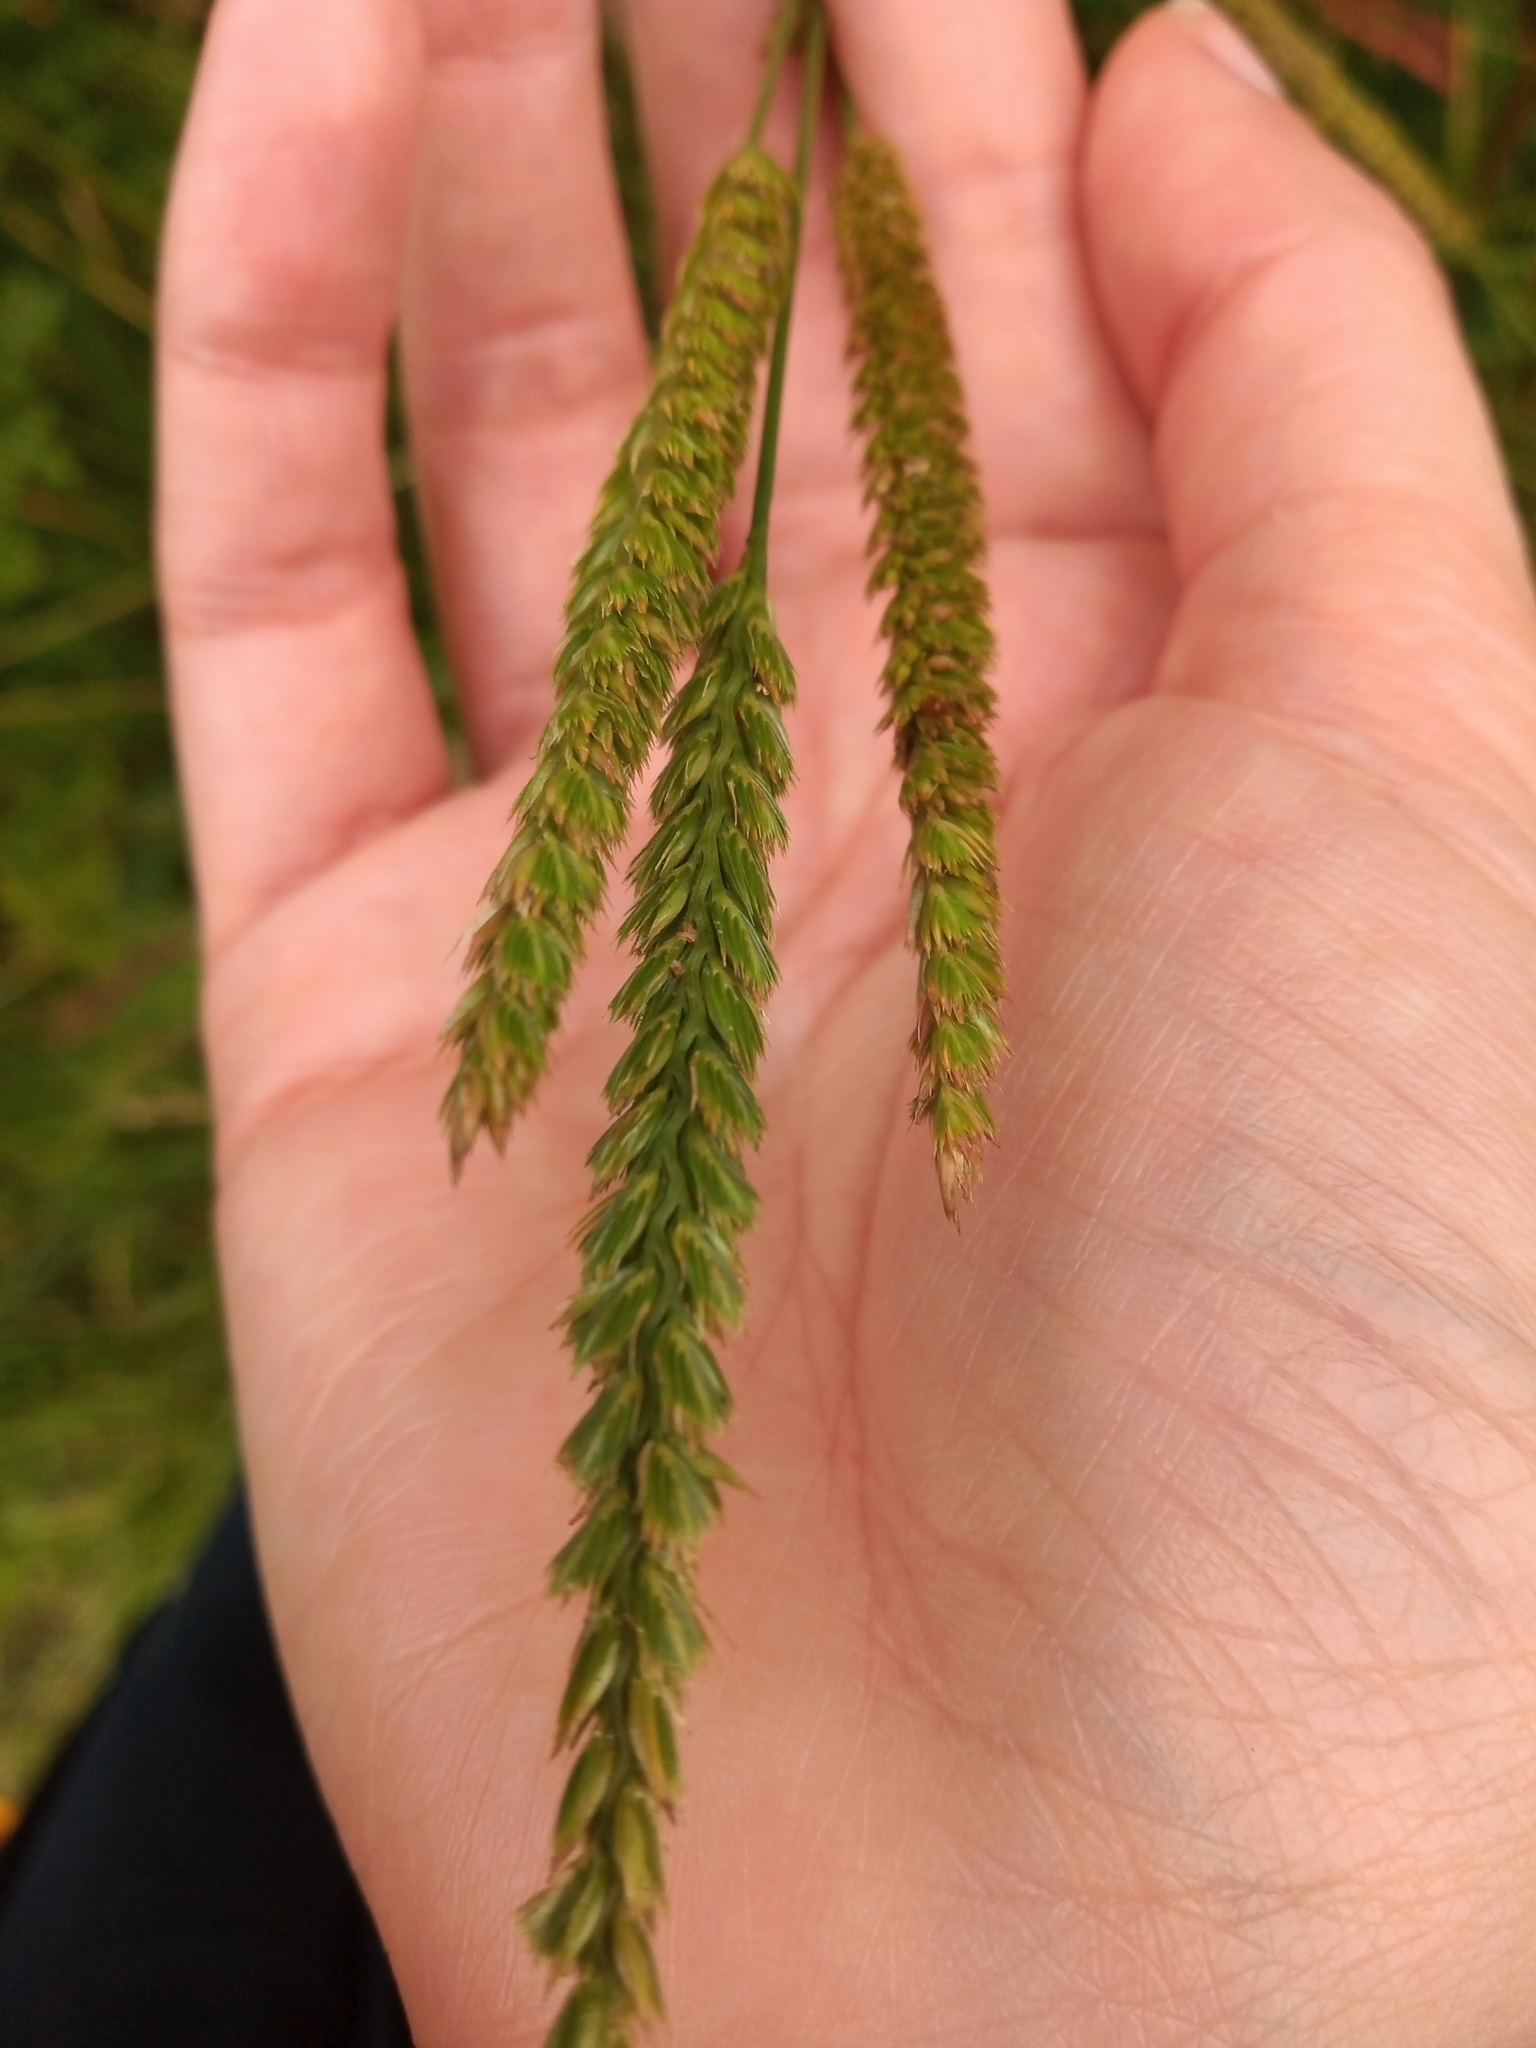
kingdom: Plantae
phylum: Tracheophyta
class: Liliopsida
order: Poales
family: Poaceae
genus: Cynosurus
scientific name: Cynosurus cristatus
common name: Crested dog's-tail
